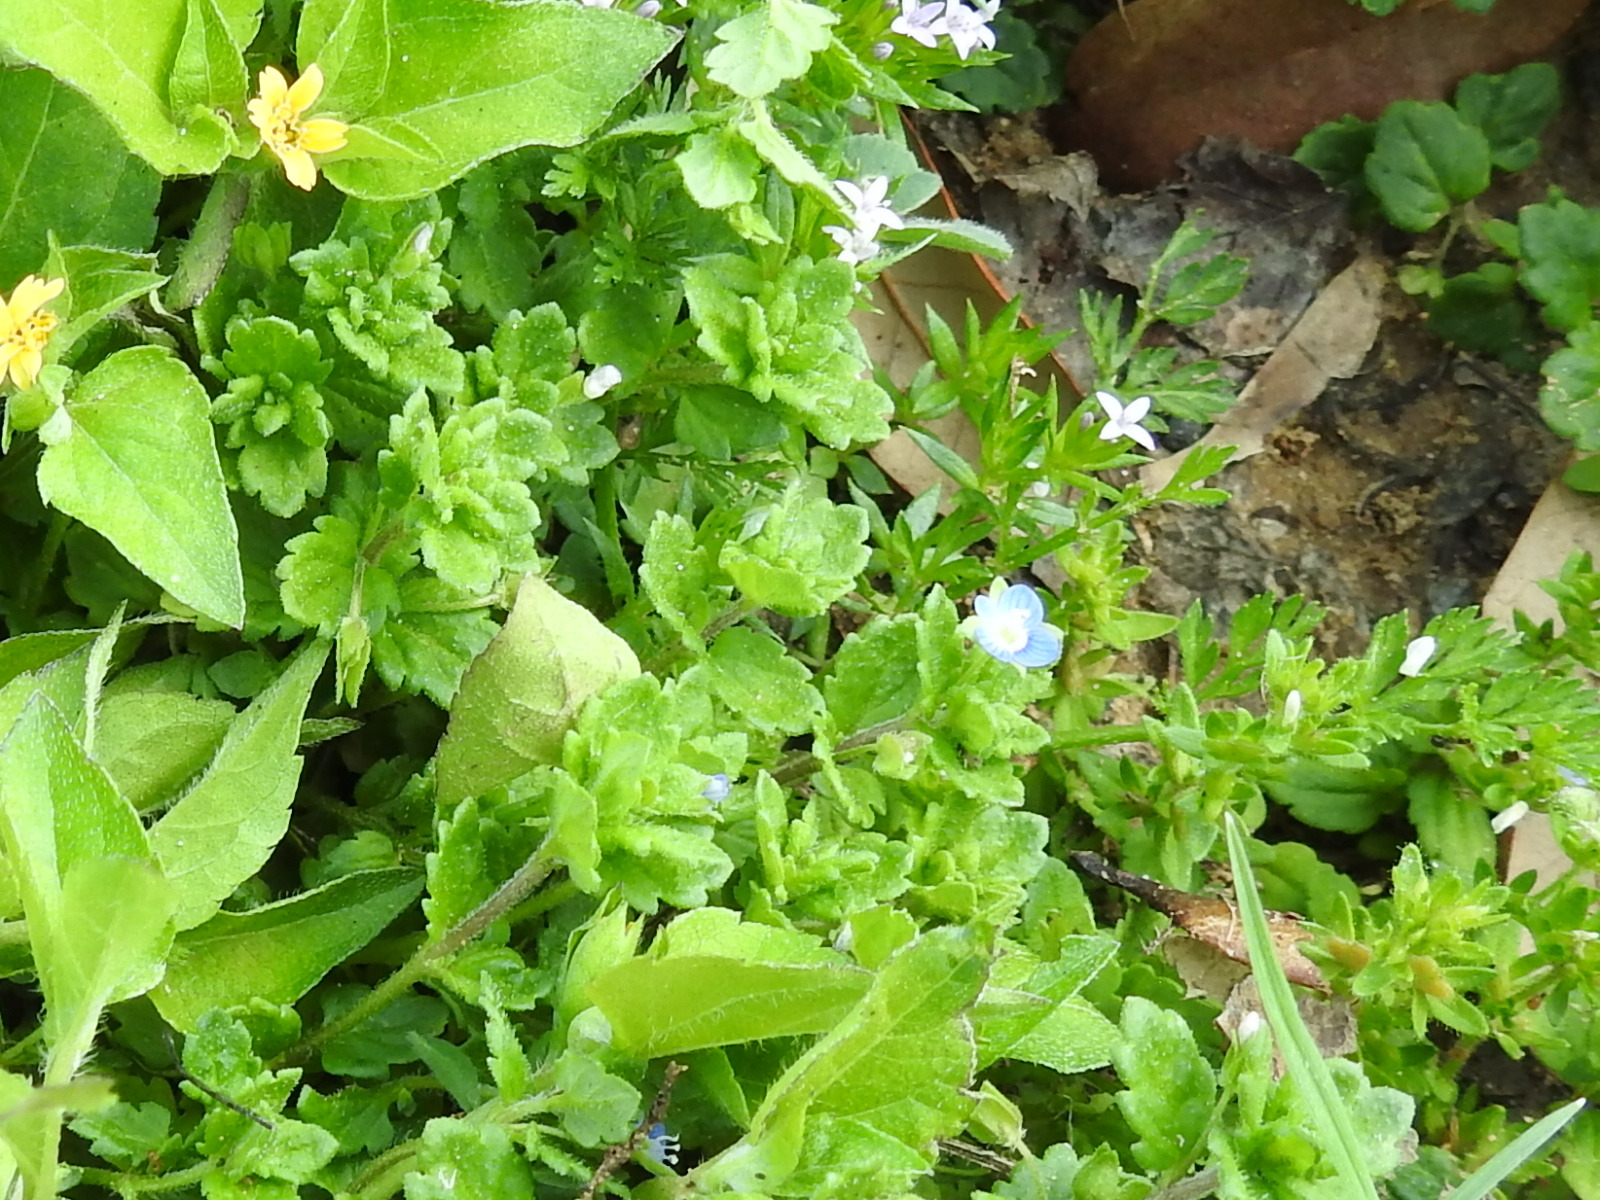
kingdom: Plantae
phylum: Tracheophyta
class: Magnoliopsida
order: Lamiales
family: Plantaginaceae
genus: Veronica
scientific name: Veronica polita
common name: Grey field-speedwell
